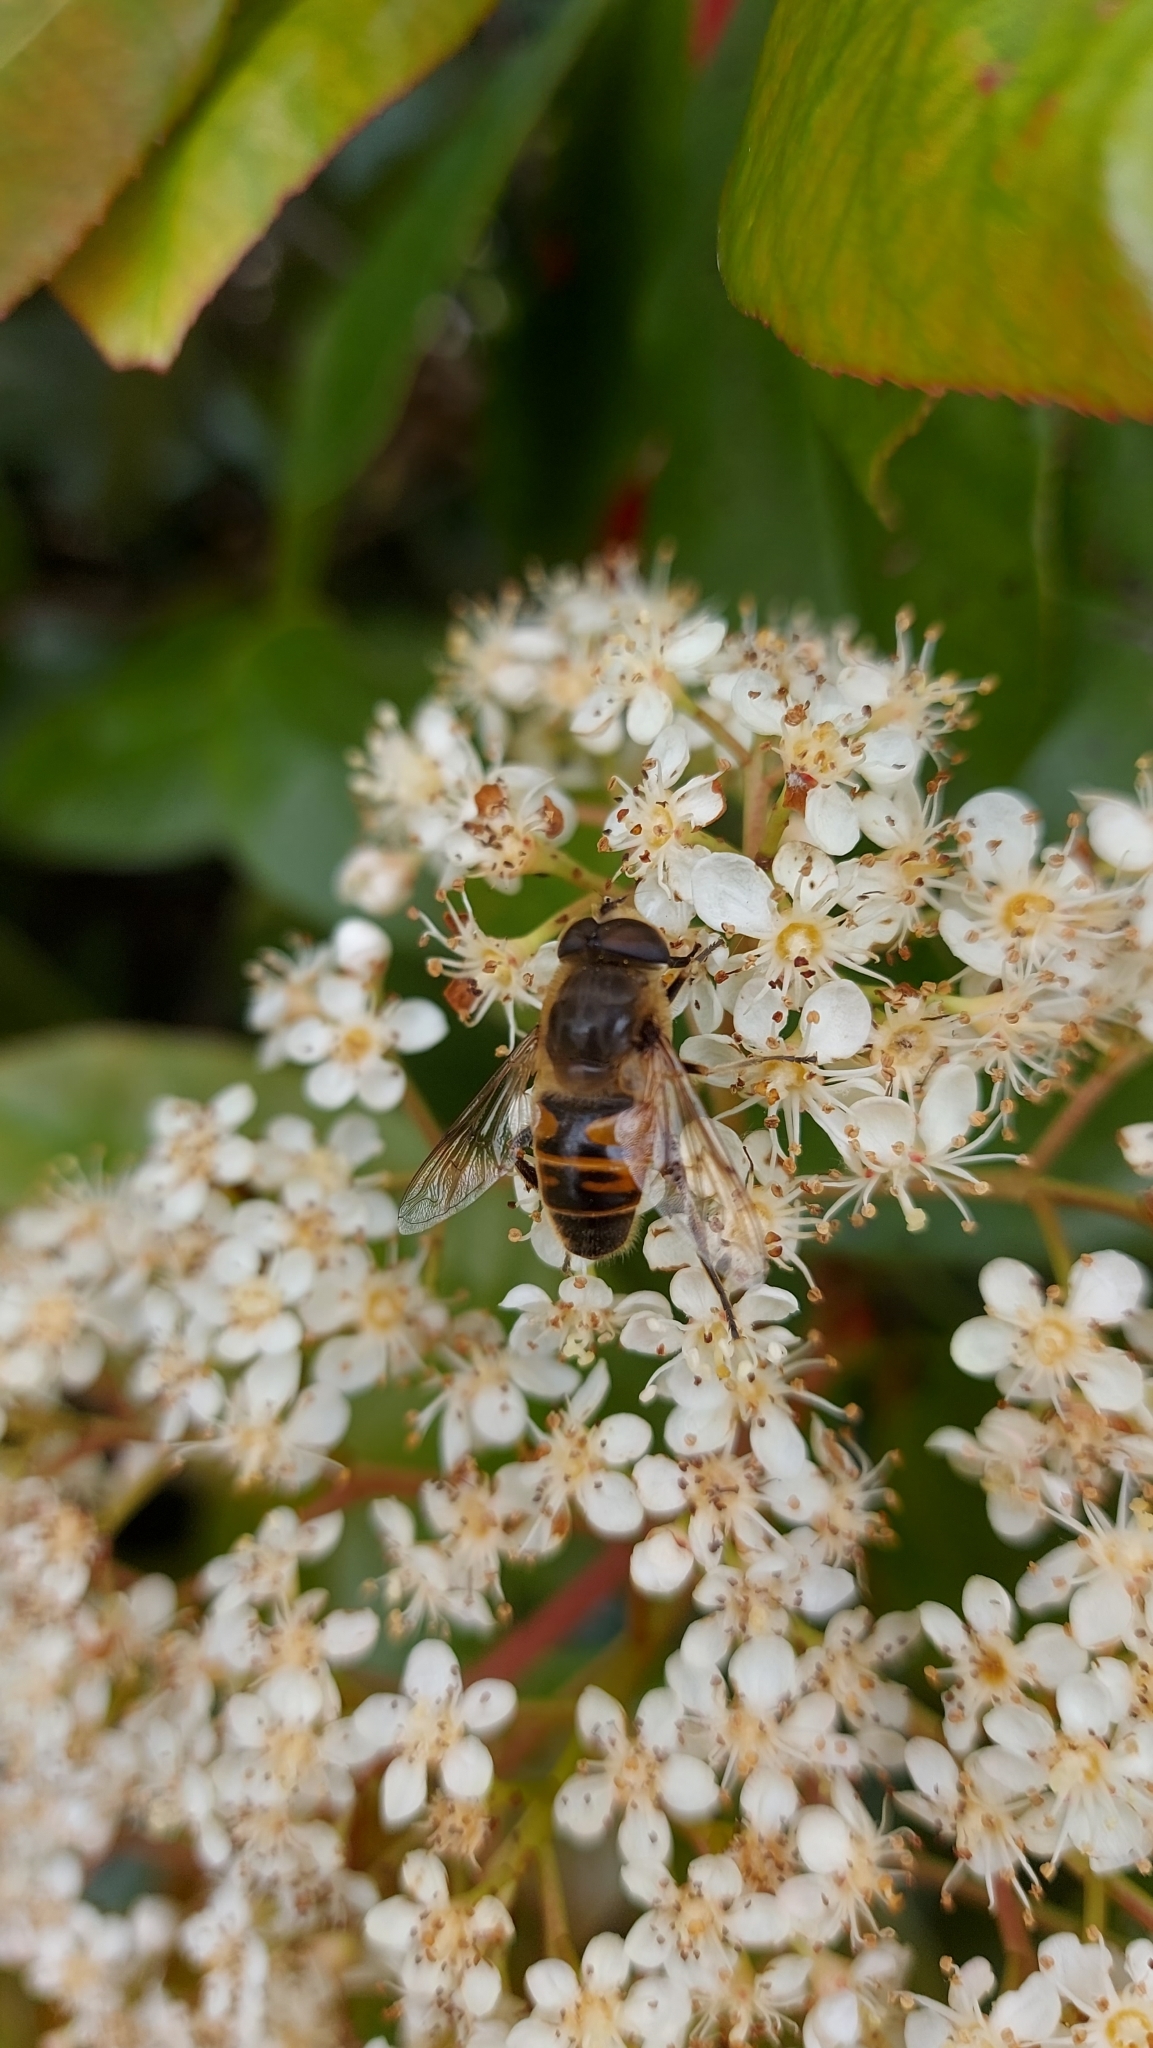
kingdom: Animalia
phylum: Arthropoda
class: Insecta
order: Diptera
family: Syrphidae
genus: Eristalis
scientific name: Eristalis tenax
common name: Drone fly
